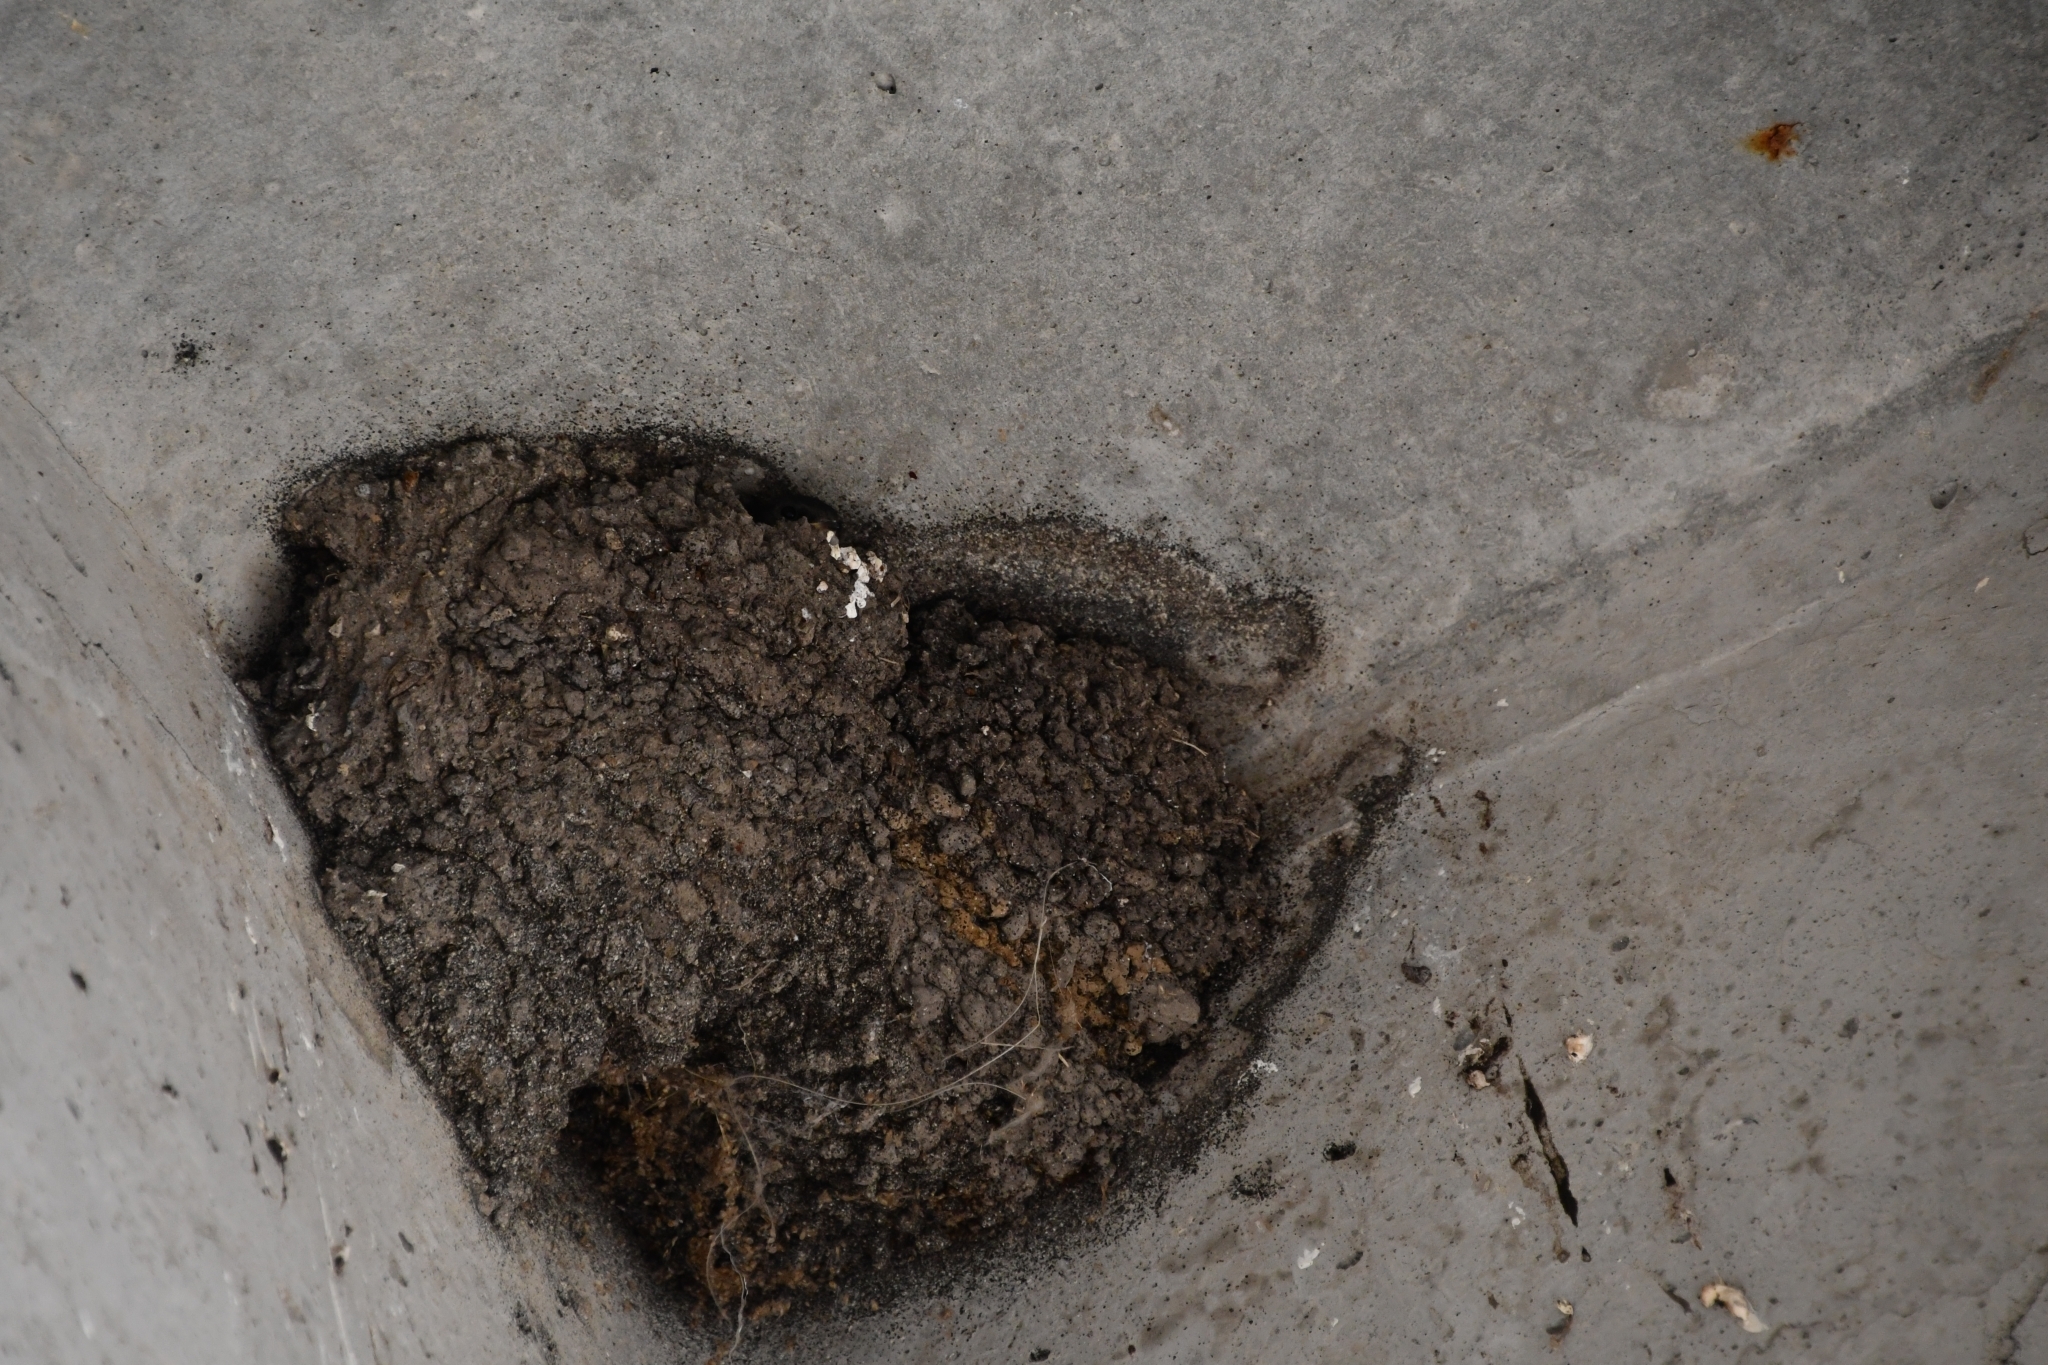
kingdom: Animalia
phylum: Chordata
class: Aves
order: Passeriformes
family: Hirundinidae
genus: Delichon
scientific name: Delichon urbicum
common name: Common house martin
